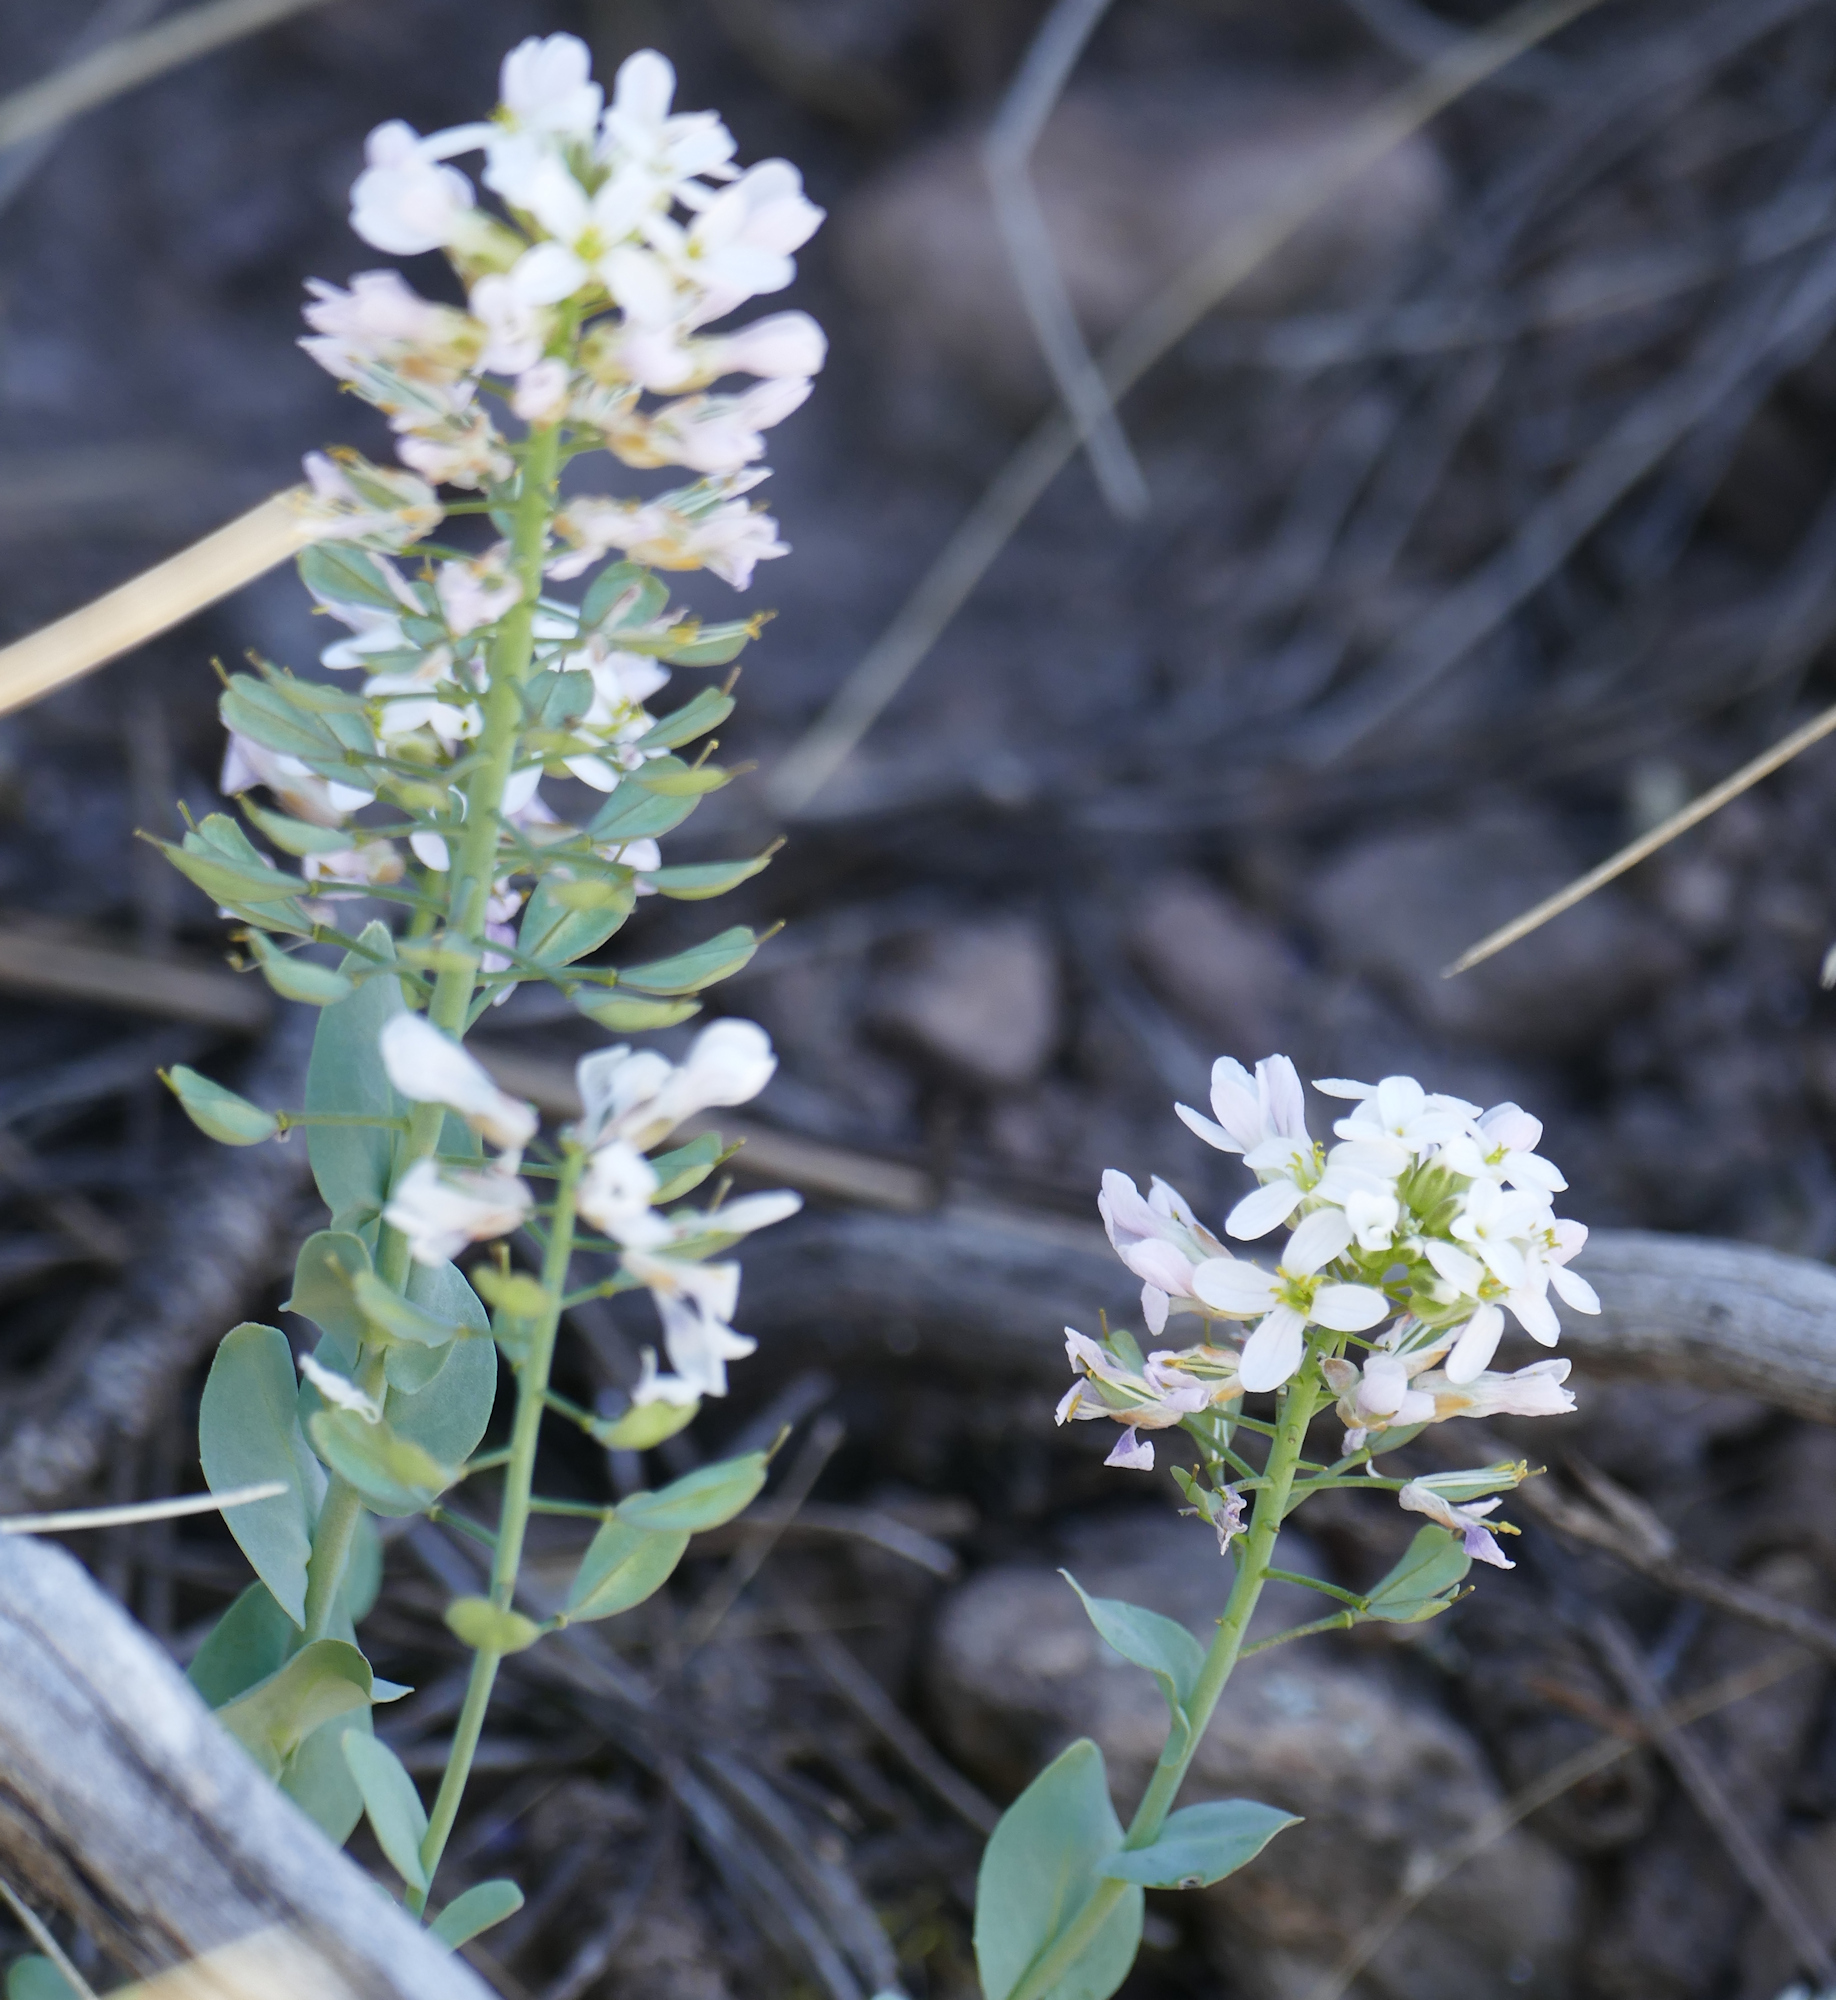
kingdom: Plantae
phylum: Tracheophyta
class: Magnoliopsida
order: Brassicales
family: Brassicaceae
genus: Noccaea
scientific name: Noccaea fendleri
